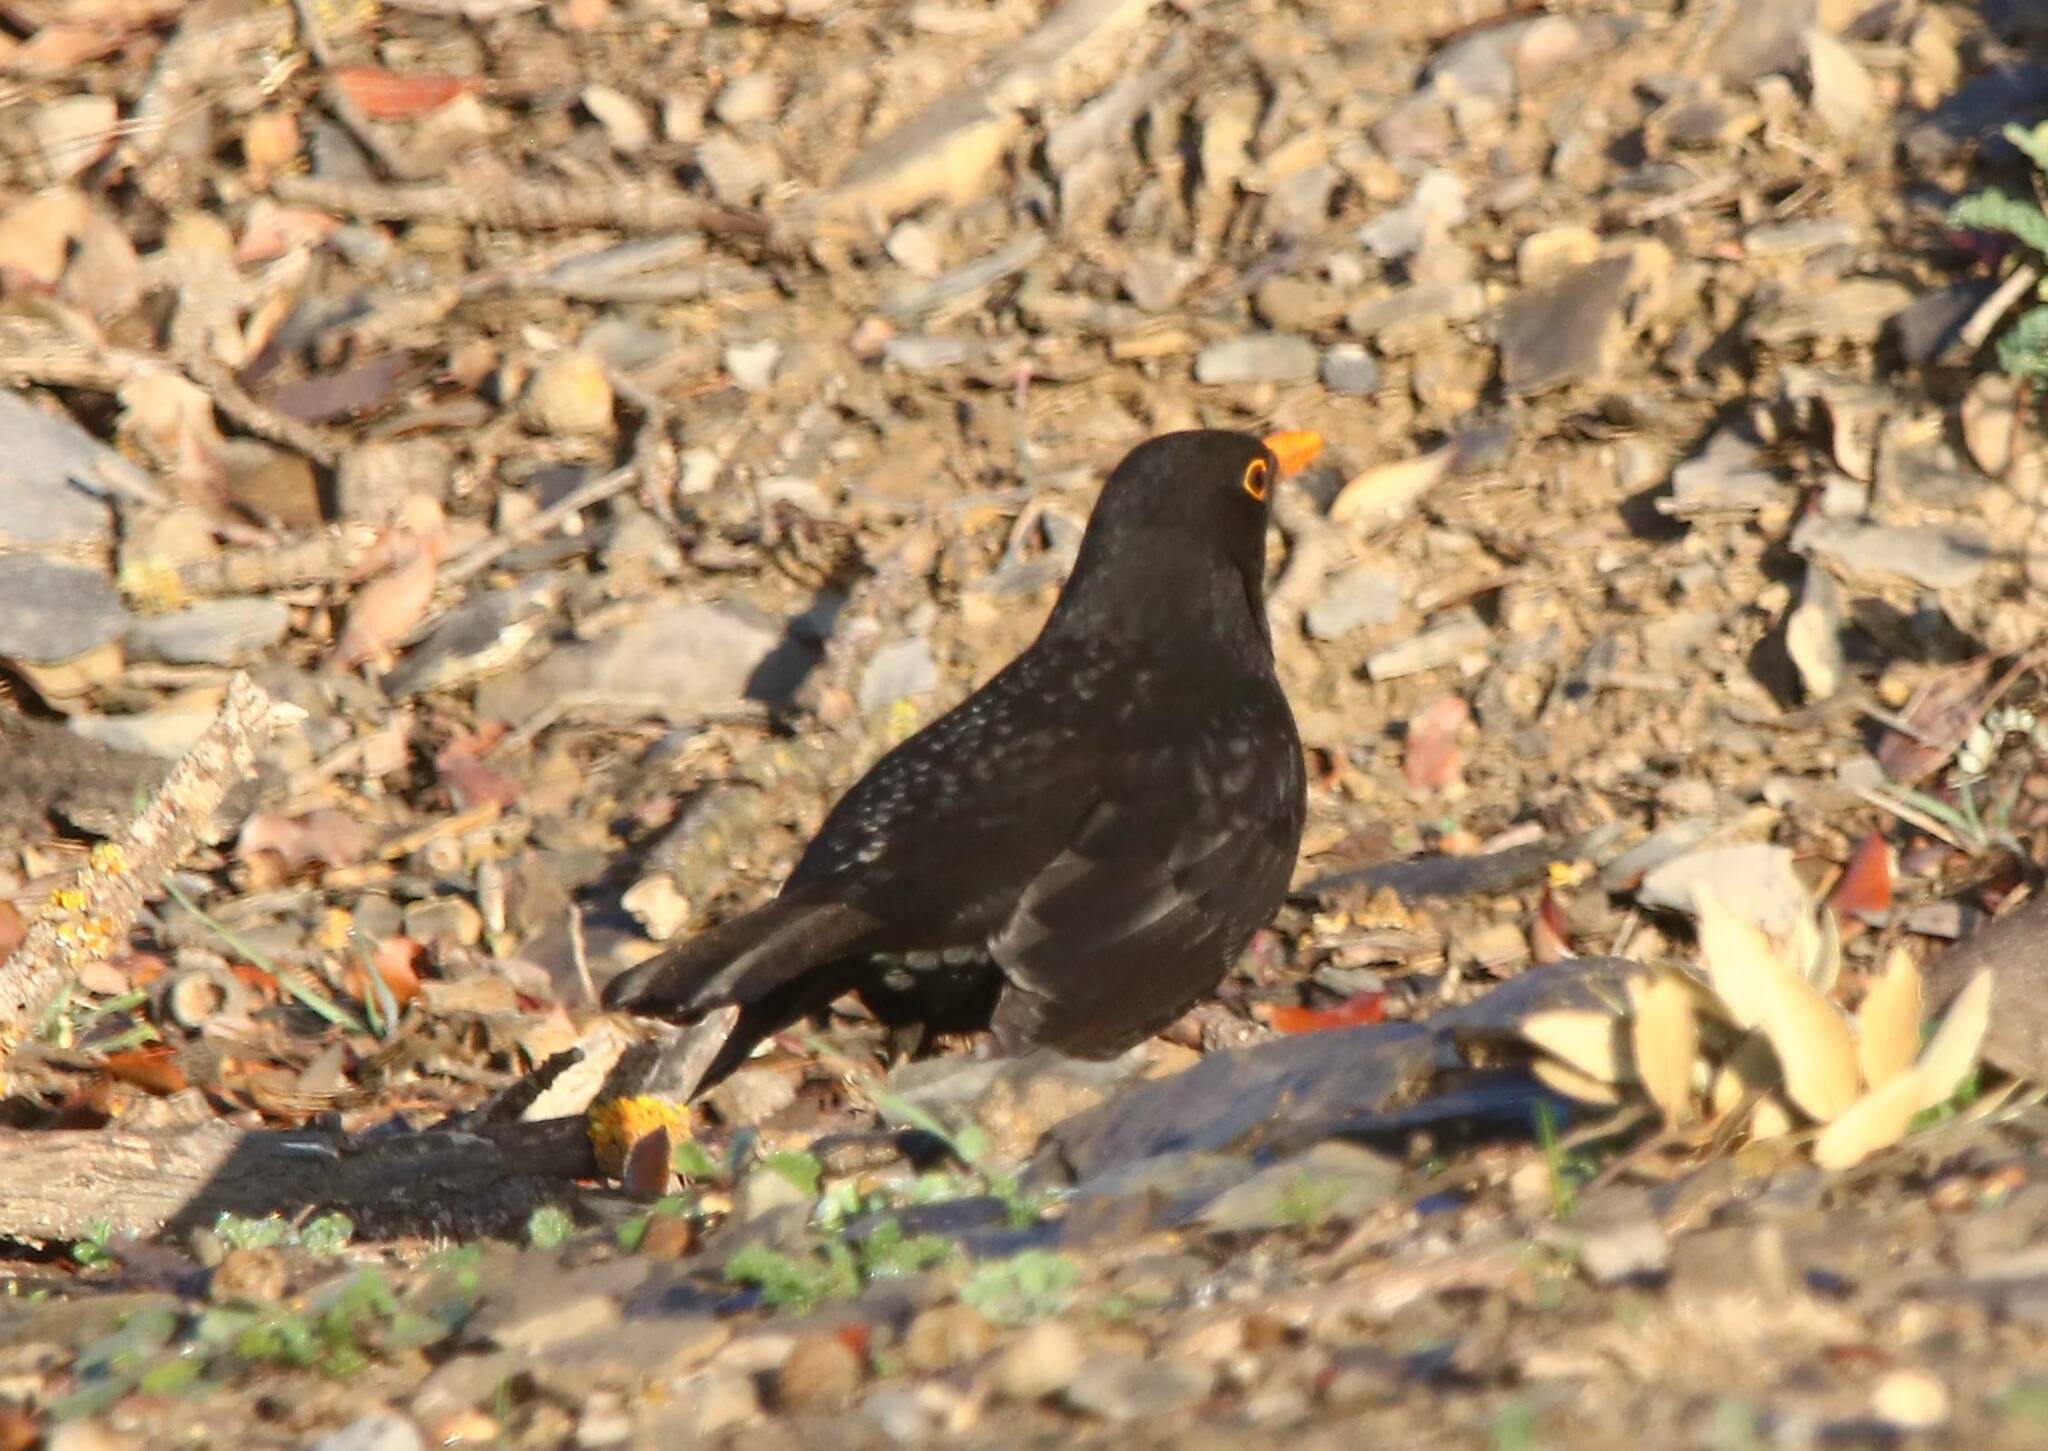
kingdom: Animalia
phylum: Chordata
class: Aves
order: Passeriformes
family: Turdidae
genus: Turdus
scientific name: Turdus merula
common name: Common blackbird
